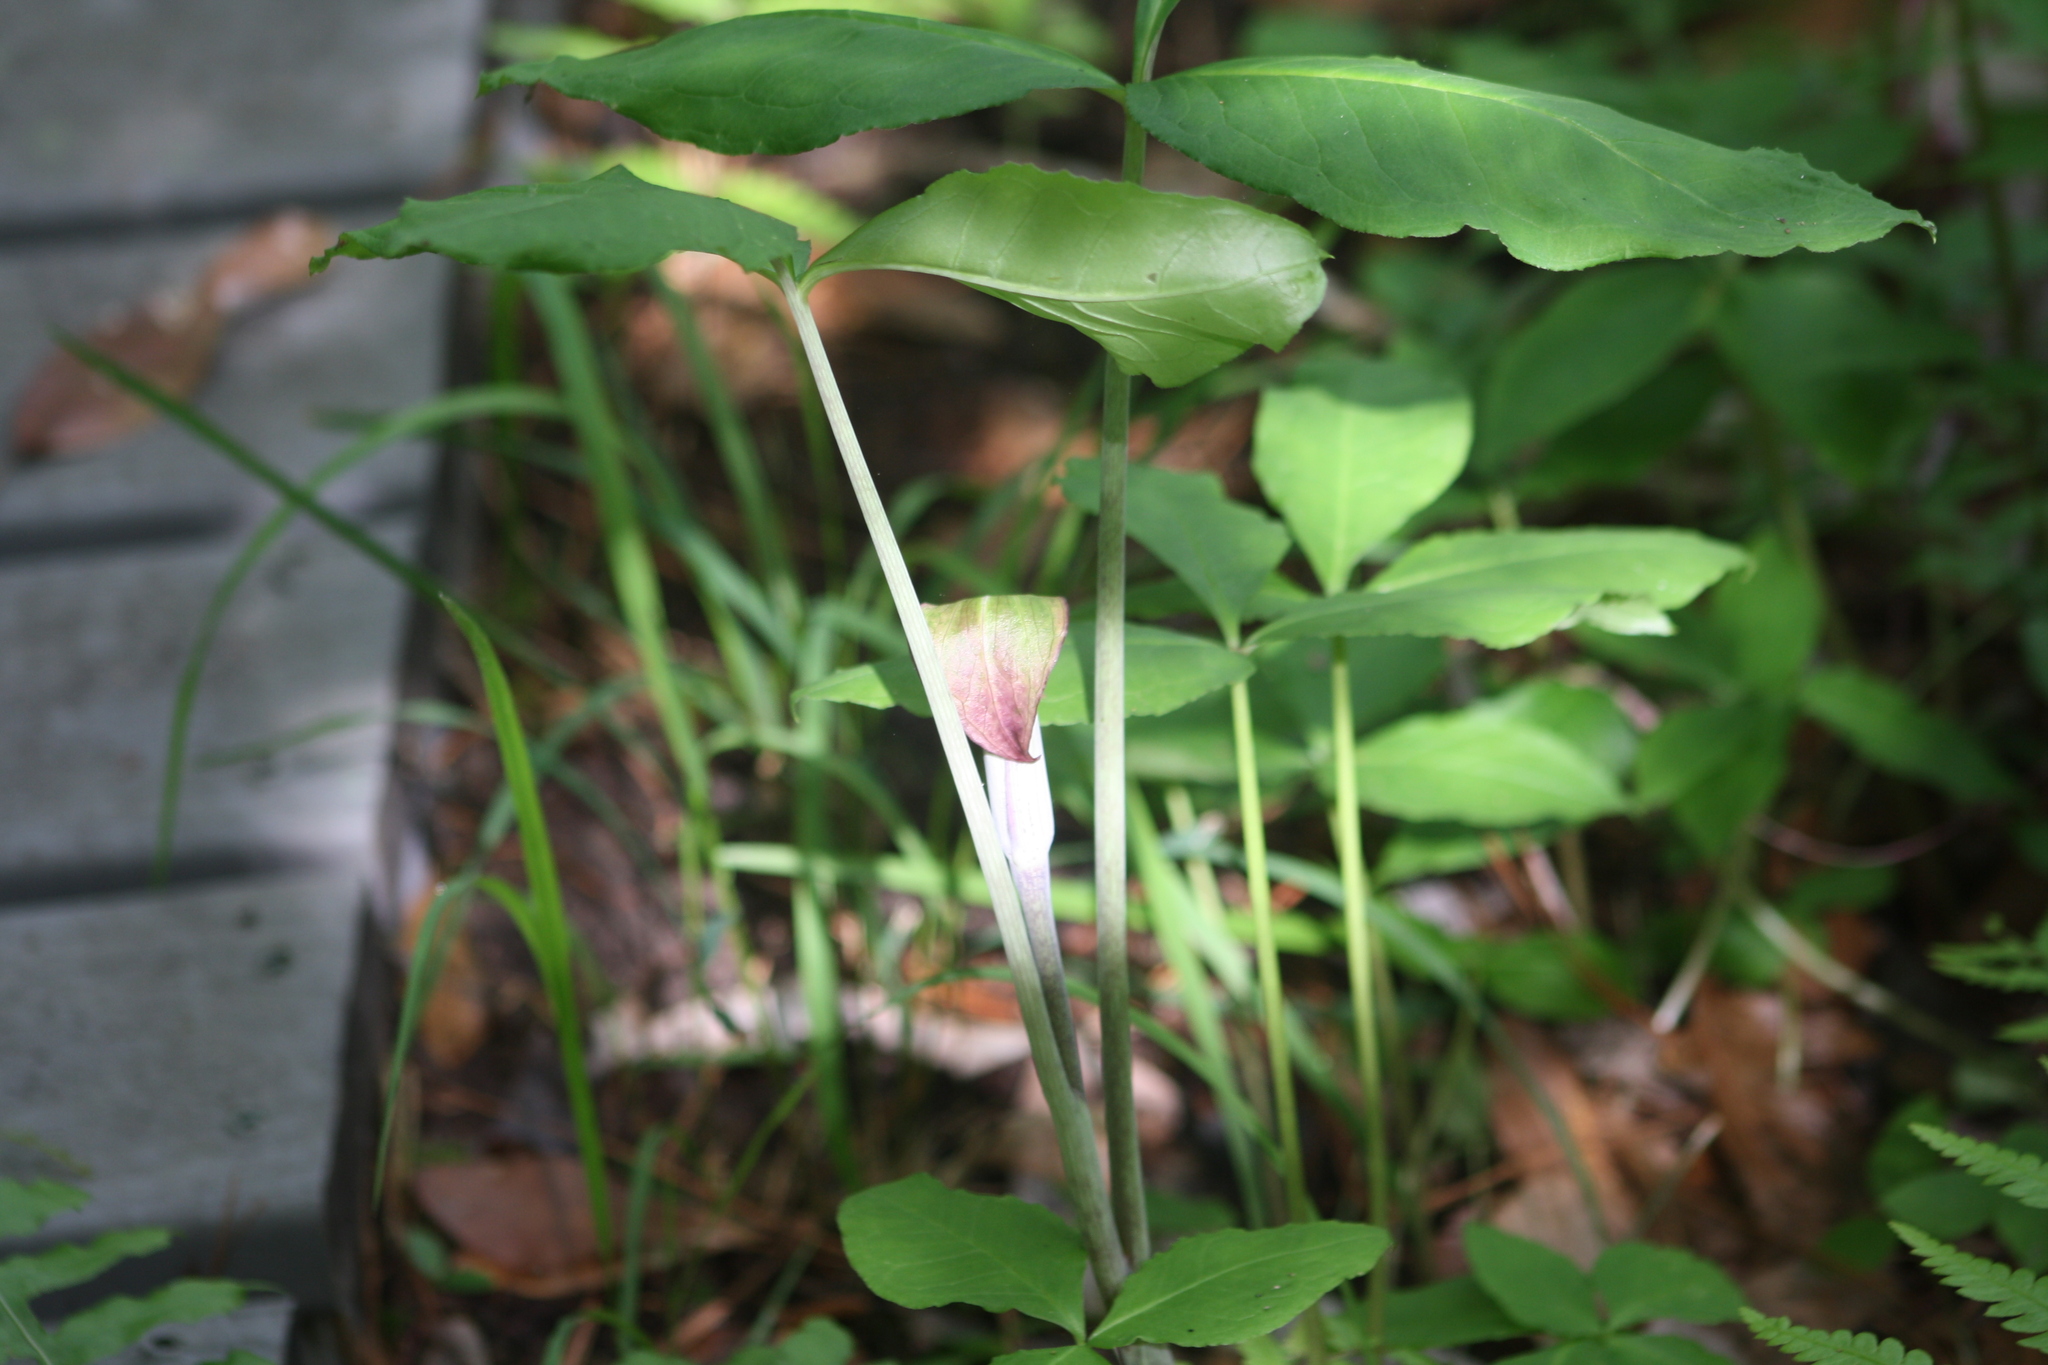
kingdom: Plantae
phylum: Tracheophyta
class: Liliopsida
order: Alismatales
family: Araceae
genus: Arisaema
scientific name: Arisaema triphyllum
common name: Jack-in-the-pulpit
